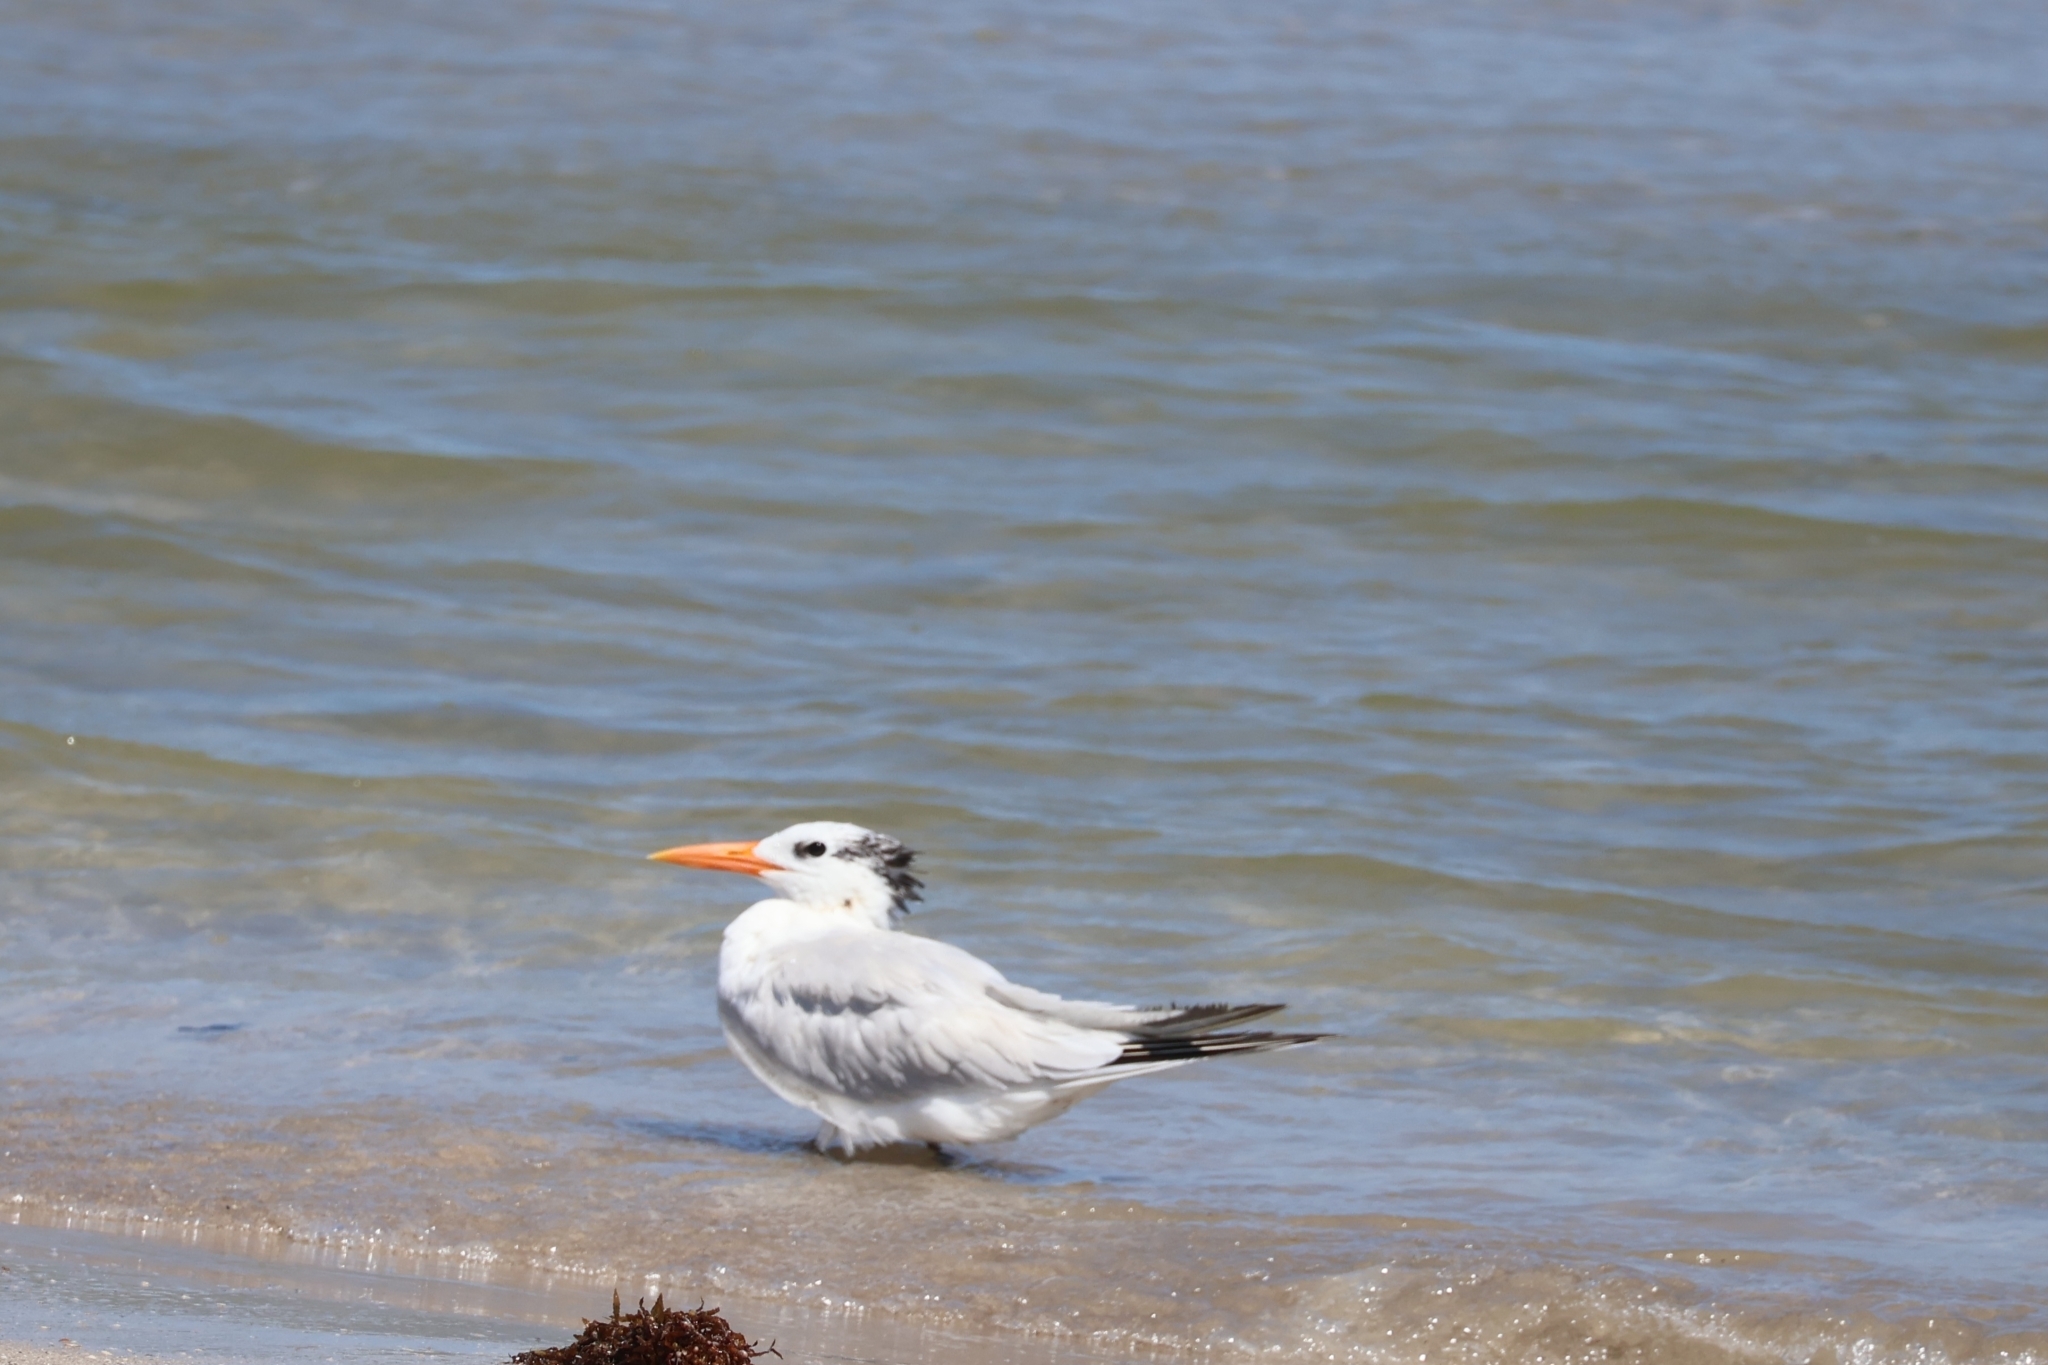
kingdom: Animalia
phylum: Chordata
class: Aves
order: Charadriiformes
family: Laridae
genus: Thalasseus
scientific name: Thalasseus maximus
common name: Royal tern
